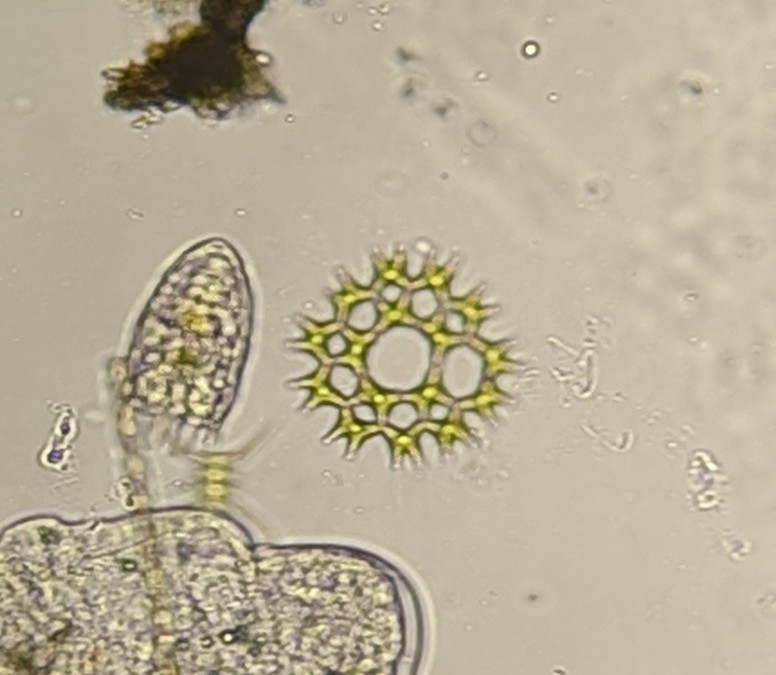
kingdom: Plantae
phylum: Chlorophyta
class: Chlorophyceae
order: Sphaeropleales
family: Hydrodictyaceae
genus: Pediastrum
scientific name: Pediastrum duplex
